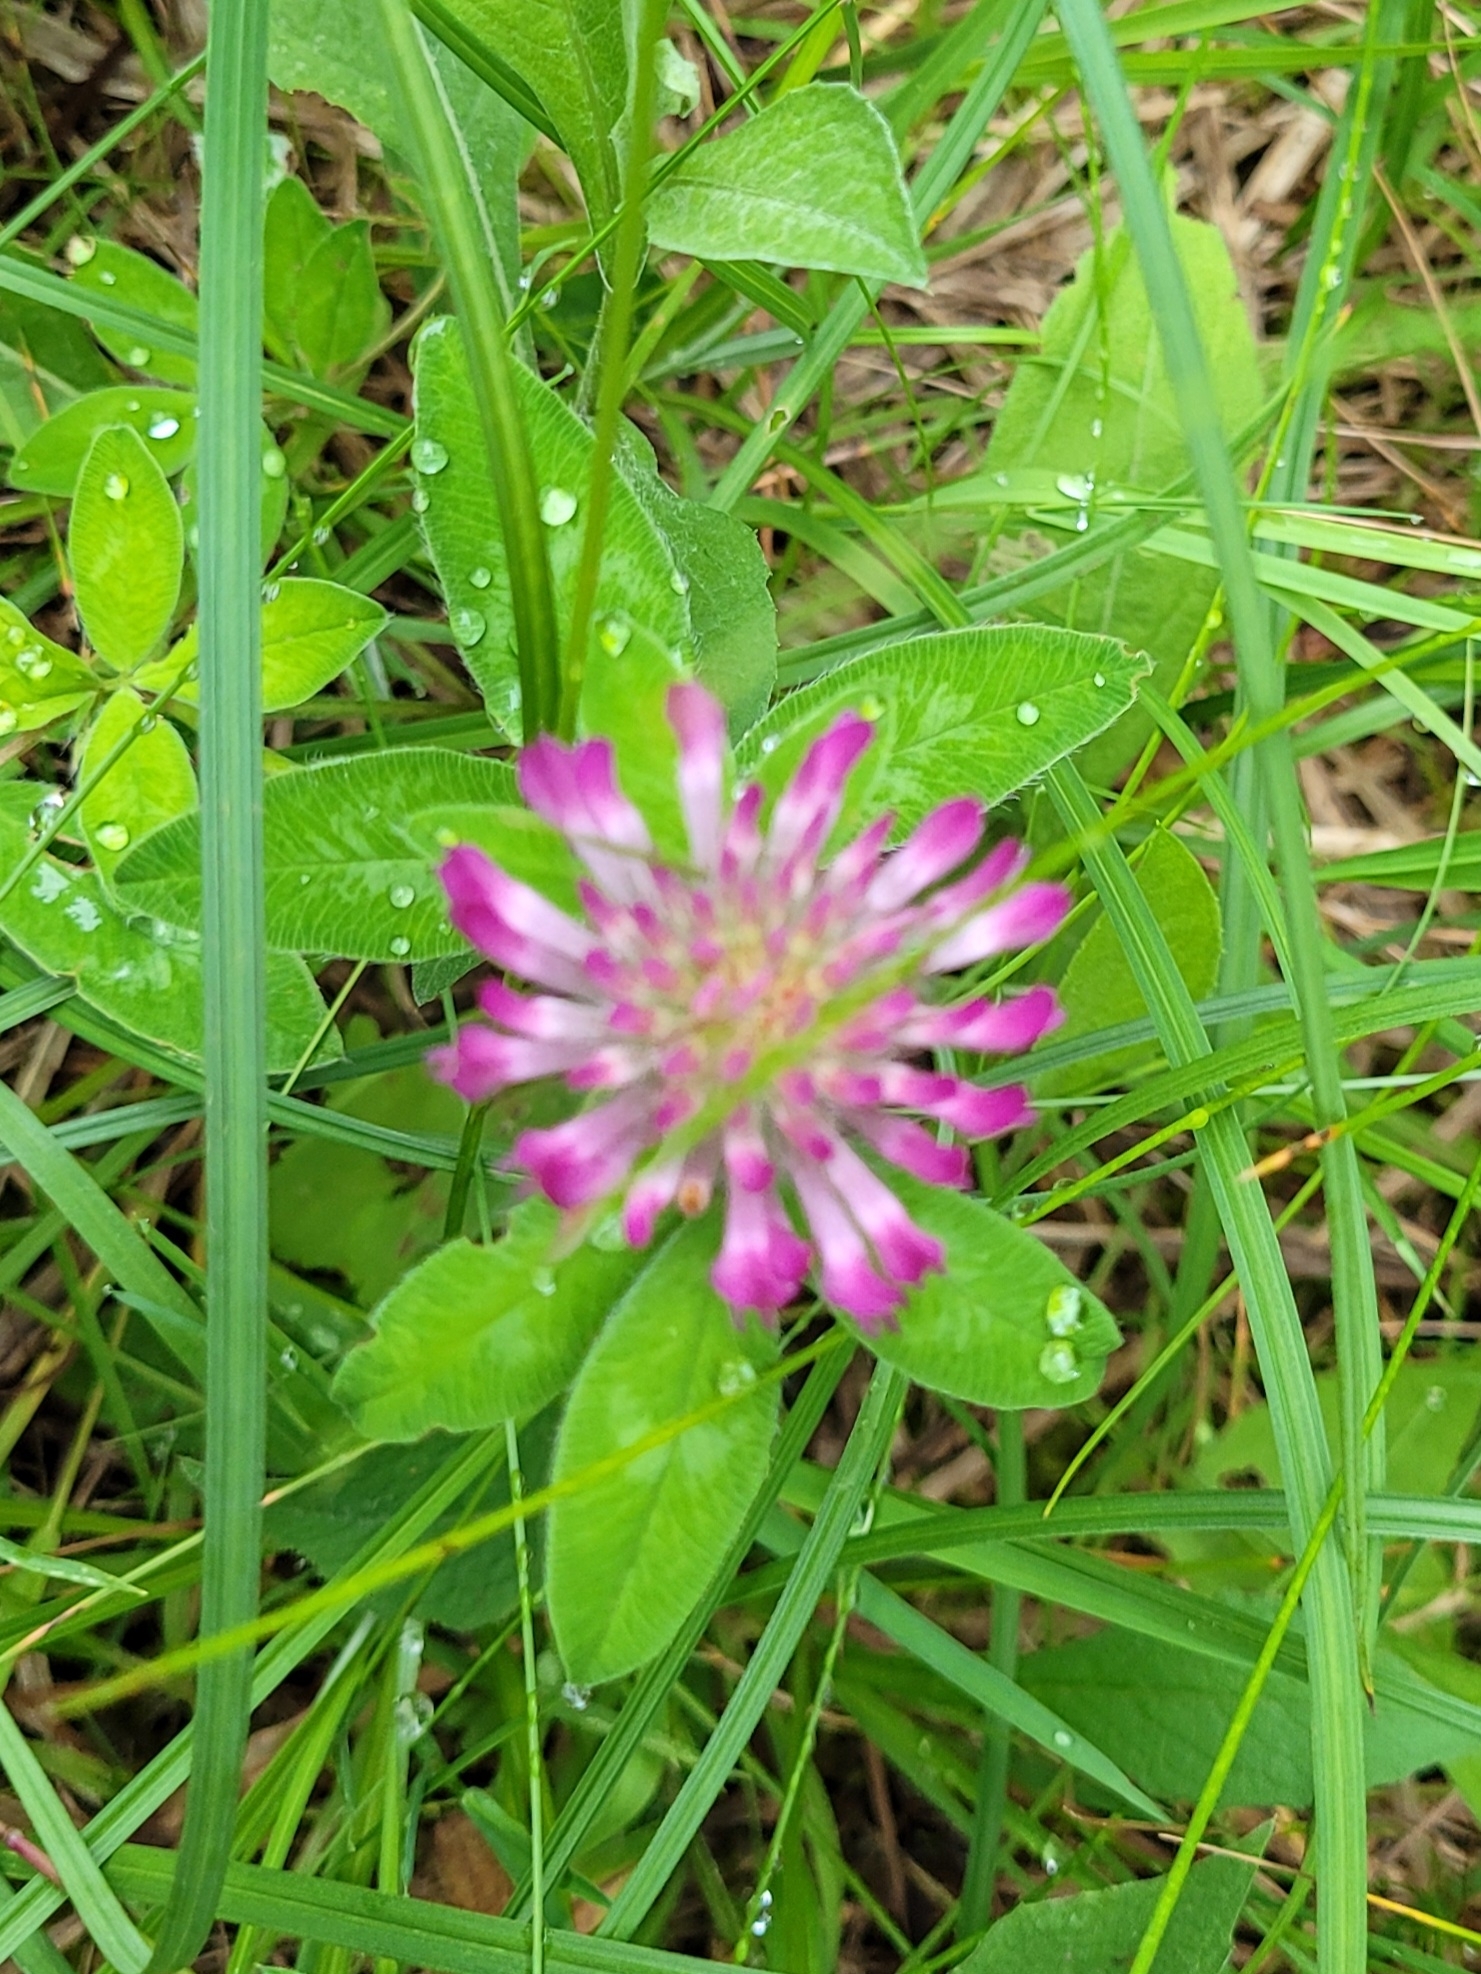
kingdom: Plantae
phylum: Tracheophyta
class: Magnoliopsida
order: Fabales
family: Fabaceae
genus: Trifolium
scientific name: Trifolium medium
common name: Zigzag clover
